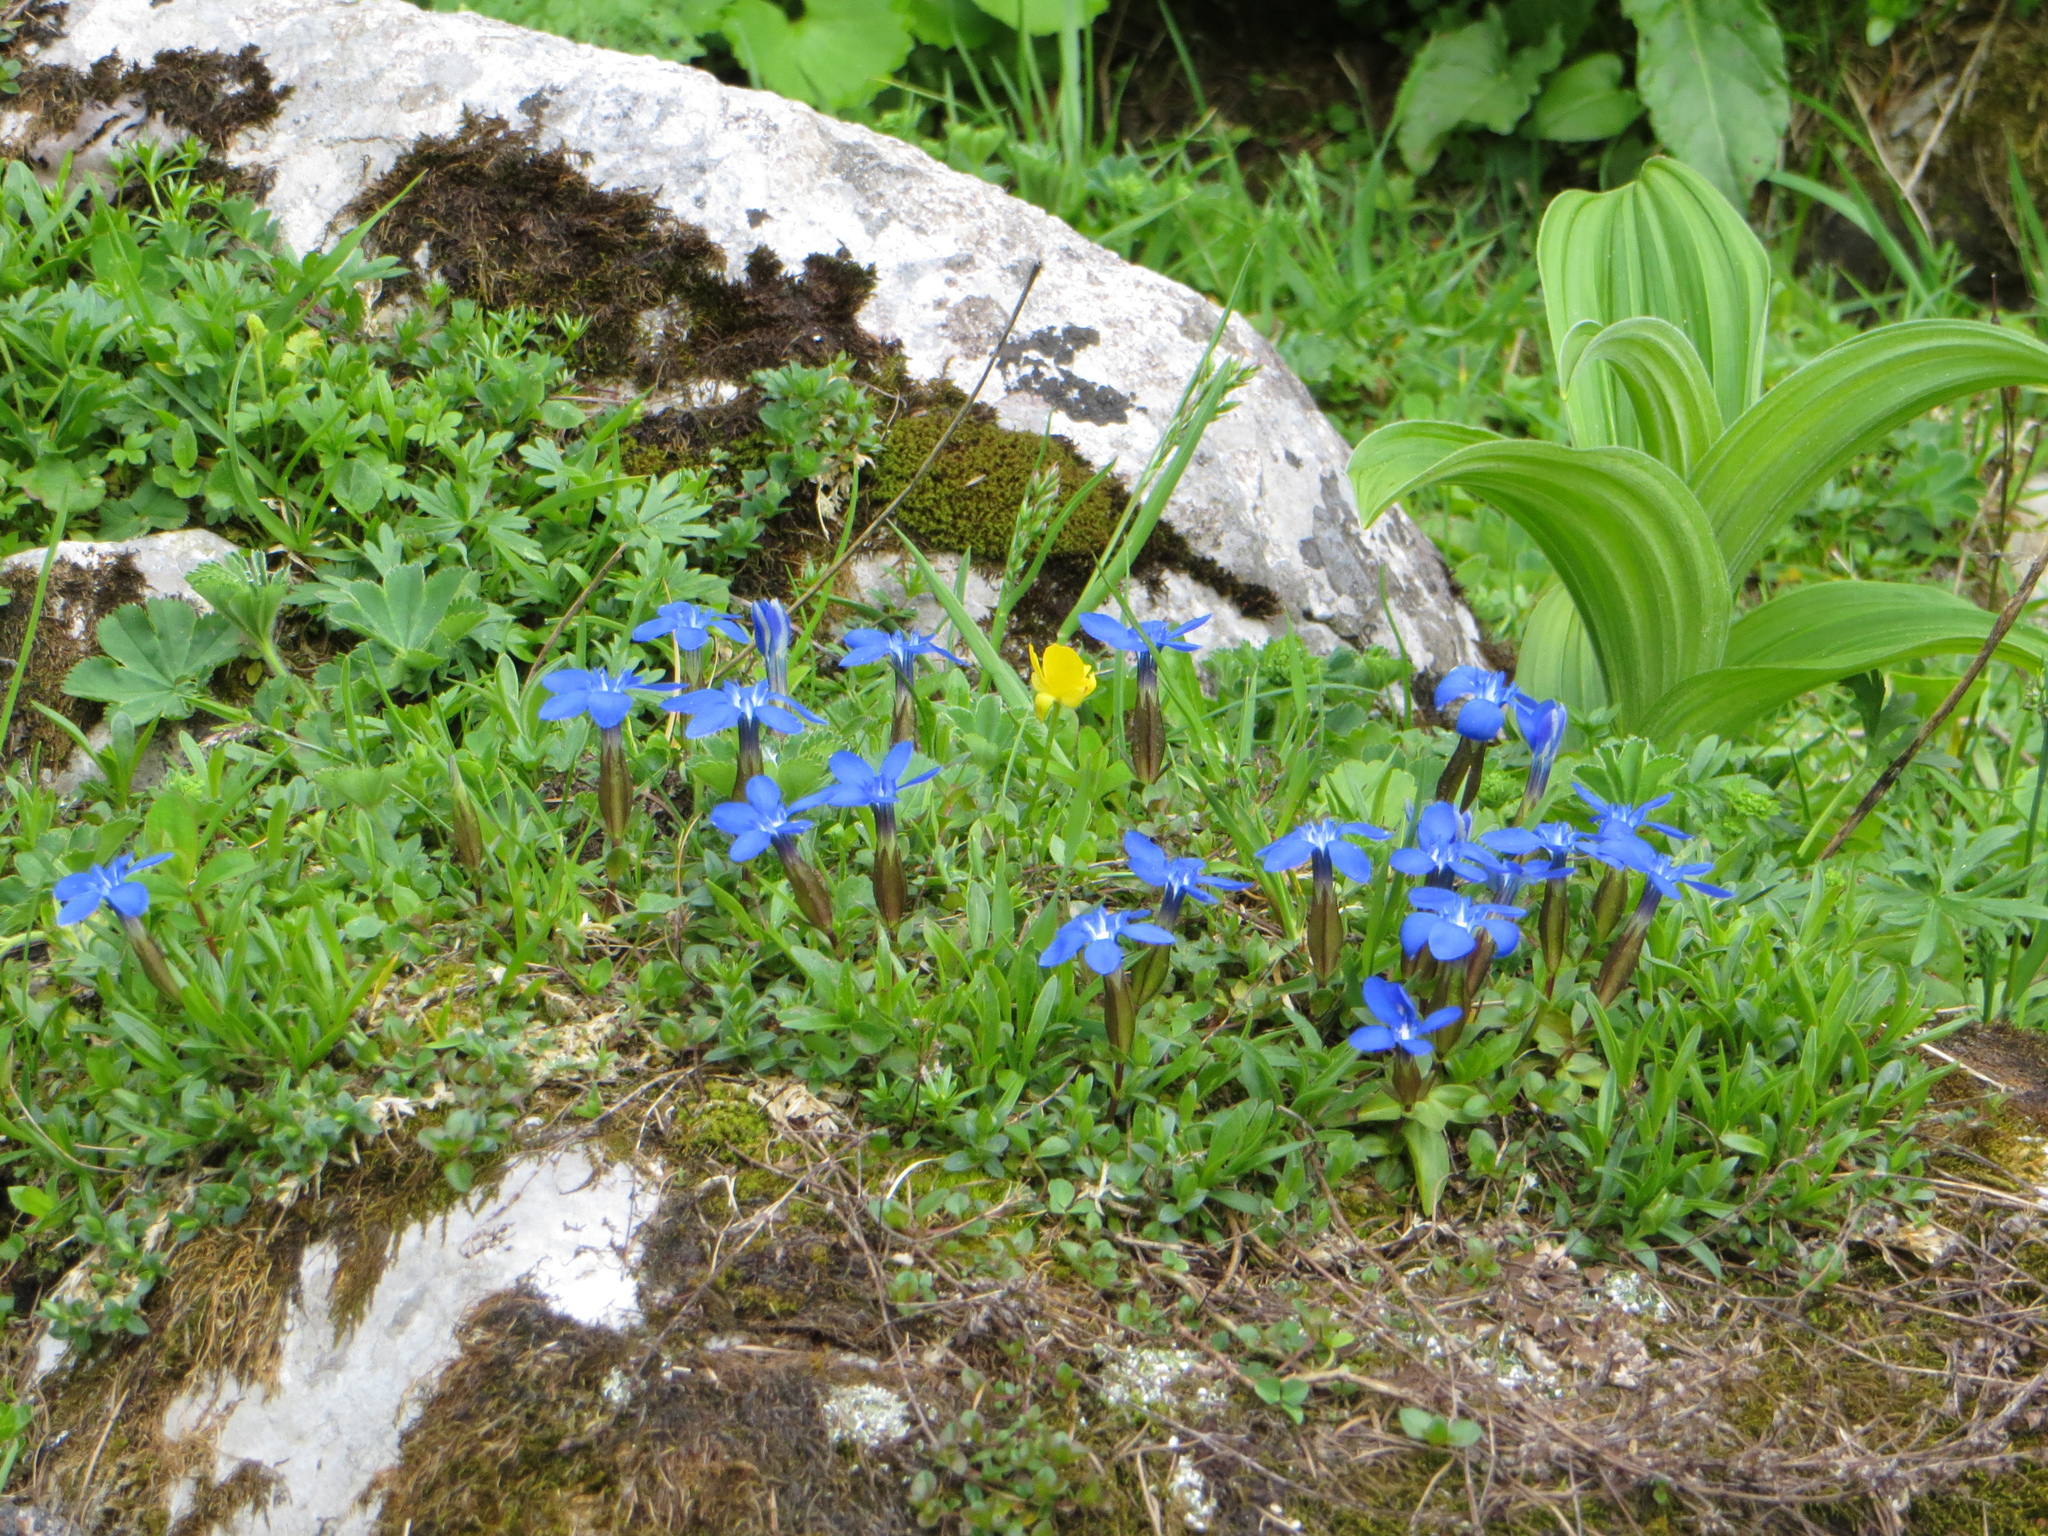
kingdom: Plantae
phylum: Tracheophyta
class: Magnoliopsida
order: Gentianales
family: Gentianaceae
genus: Gentiana
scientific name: Gentiana verna
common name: Spring gentian
